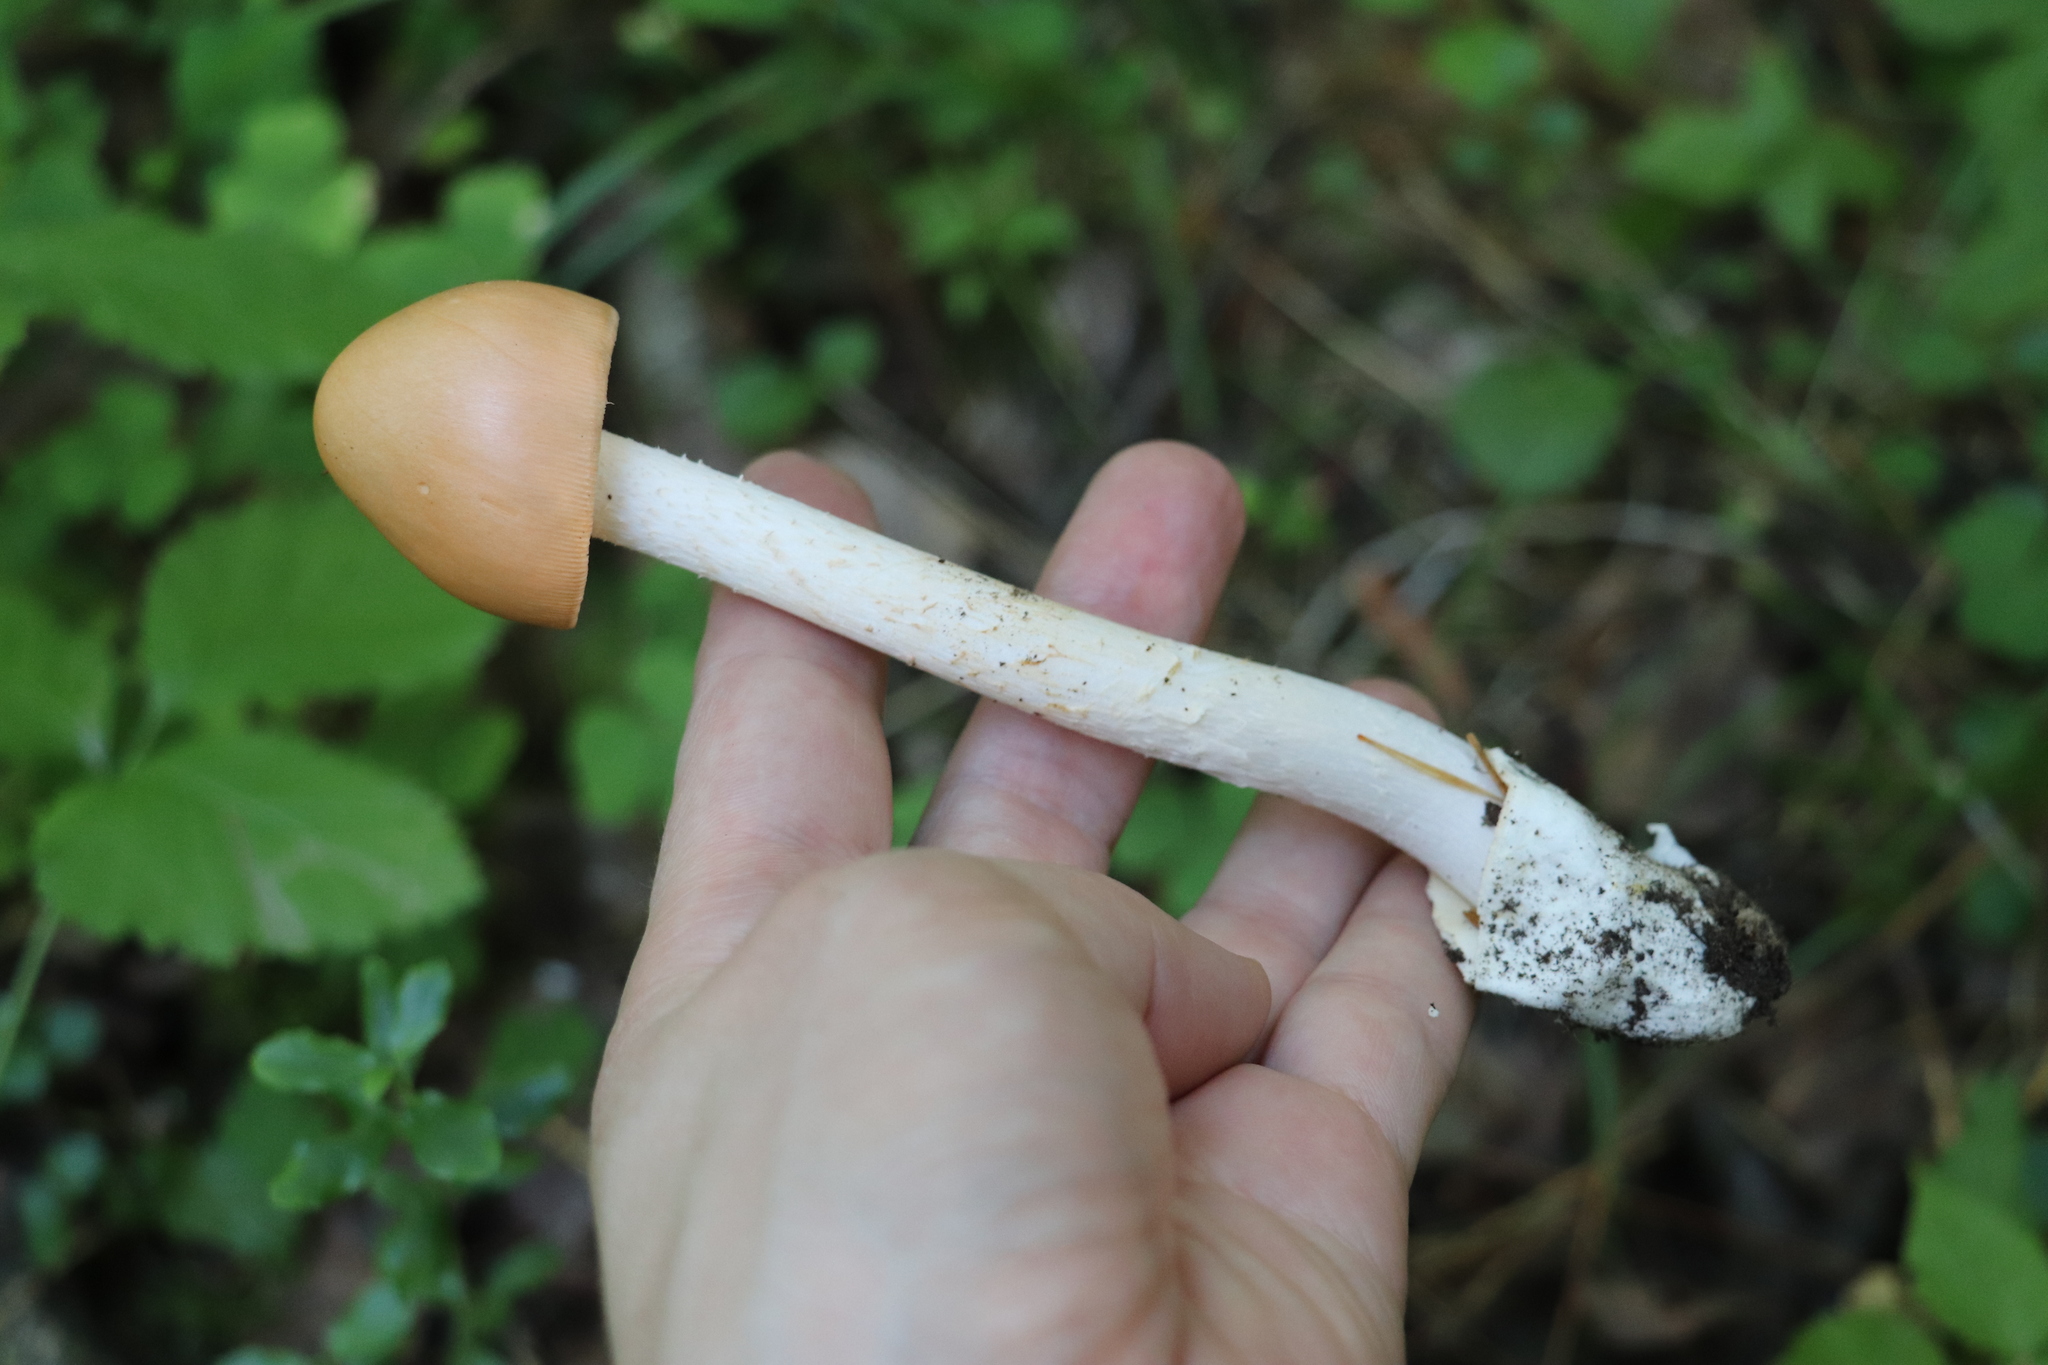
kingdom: Fungi
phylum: Basidiomycota
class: Agaricomycetes
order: Agaricales
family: Amanitaceae
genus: Amanita
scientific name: Amanita crocea
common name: Orange grisette
